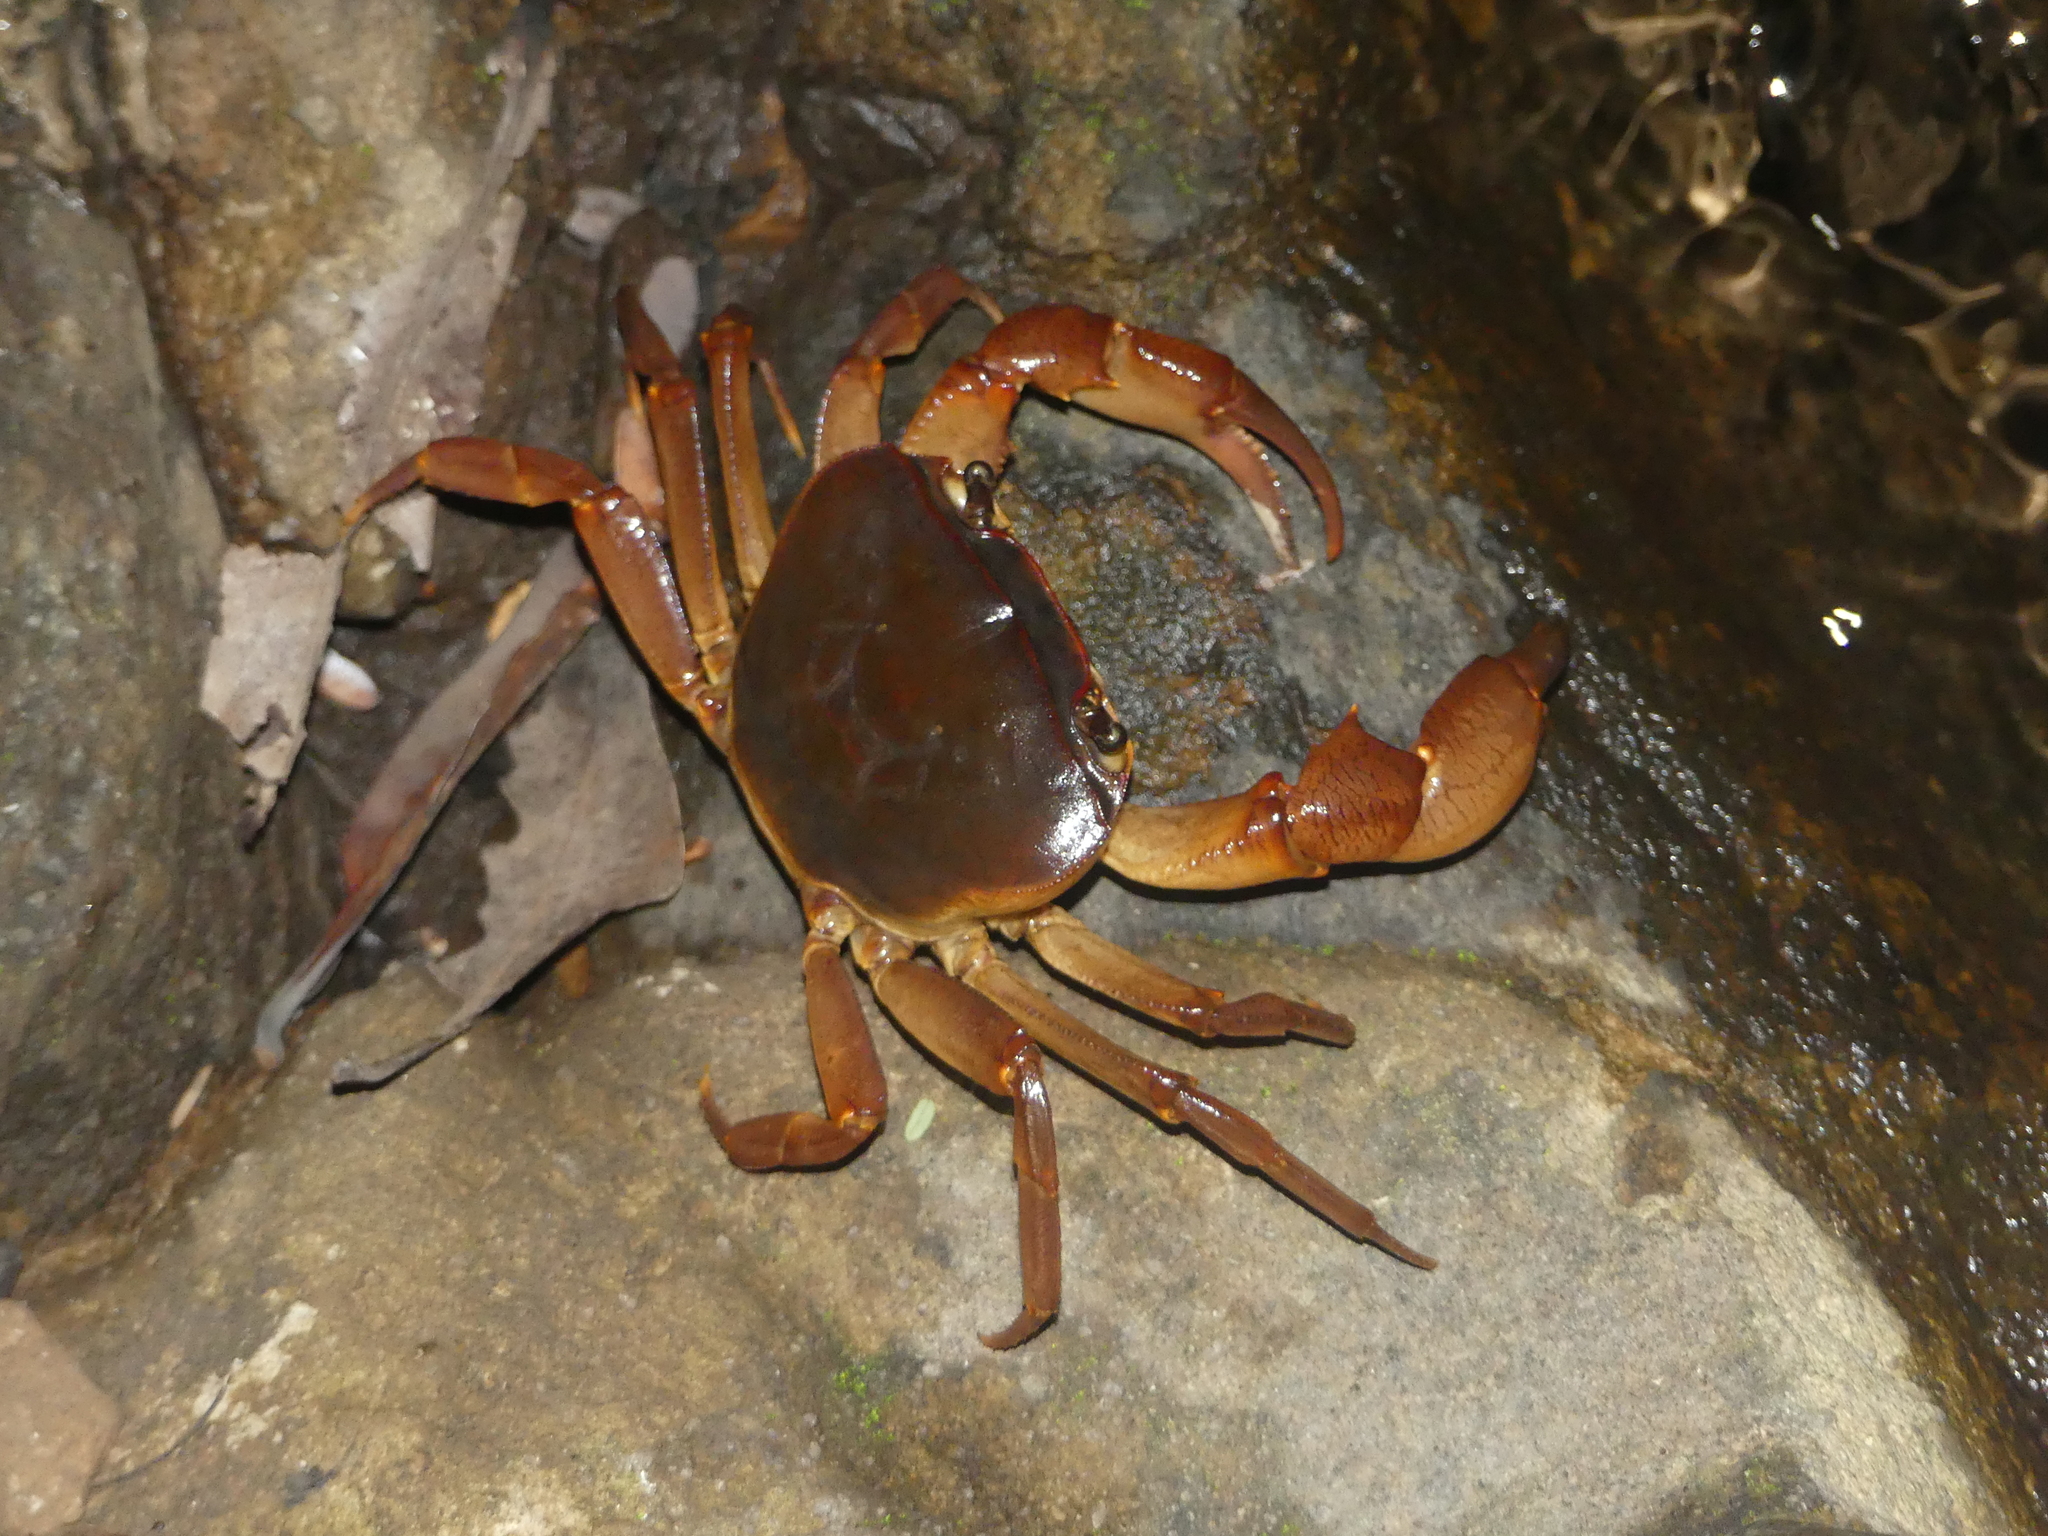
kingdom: Animalia
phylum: Arthropoda
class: Malacostraca
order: Decapoda
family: Potamonautidae
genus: Potamonautes
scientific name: Potamonautes sidneyi
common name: Natal river crab
